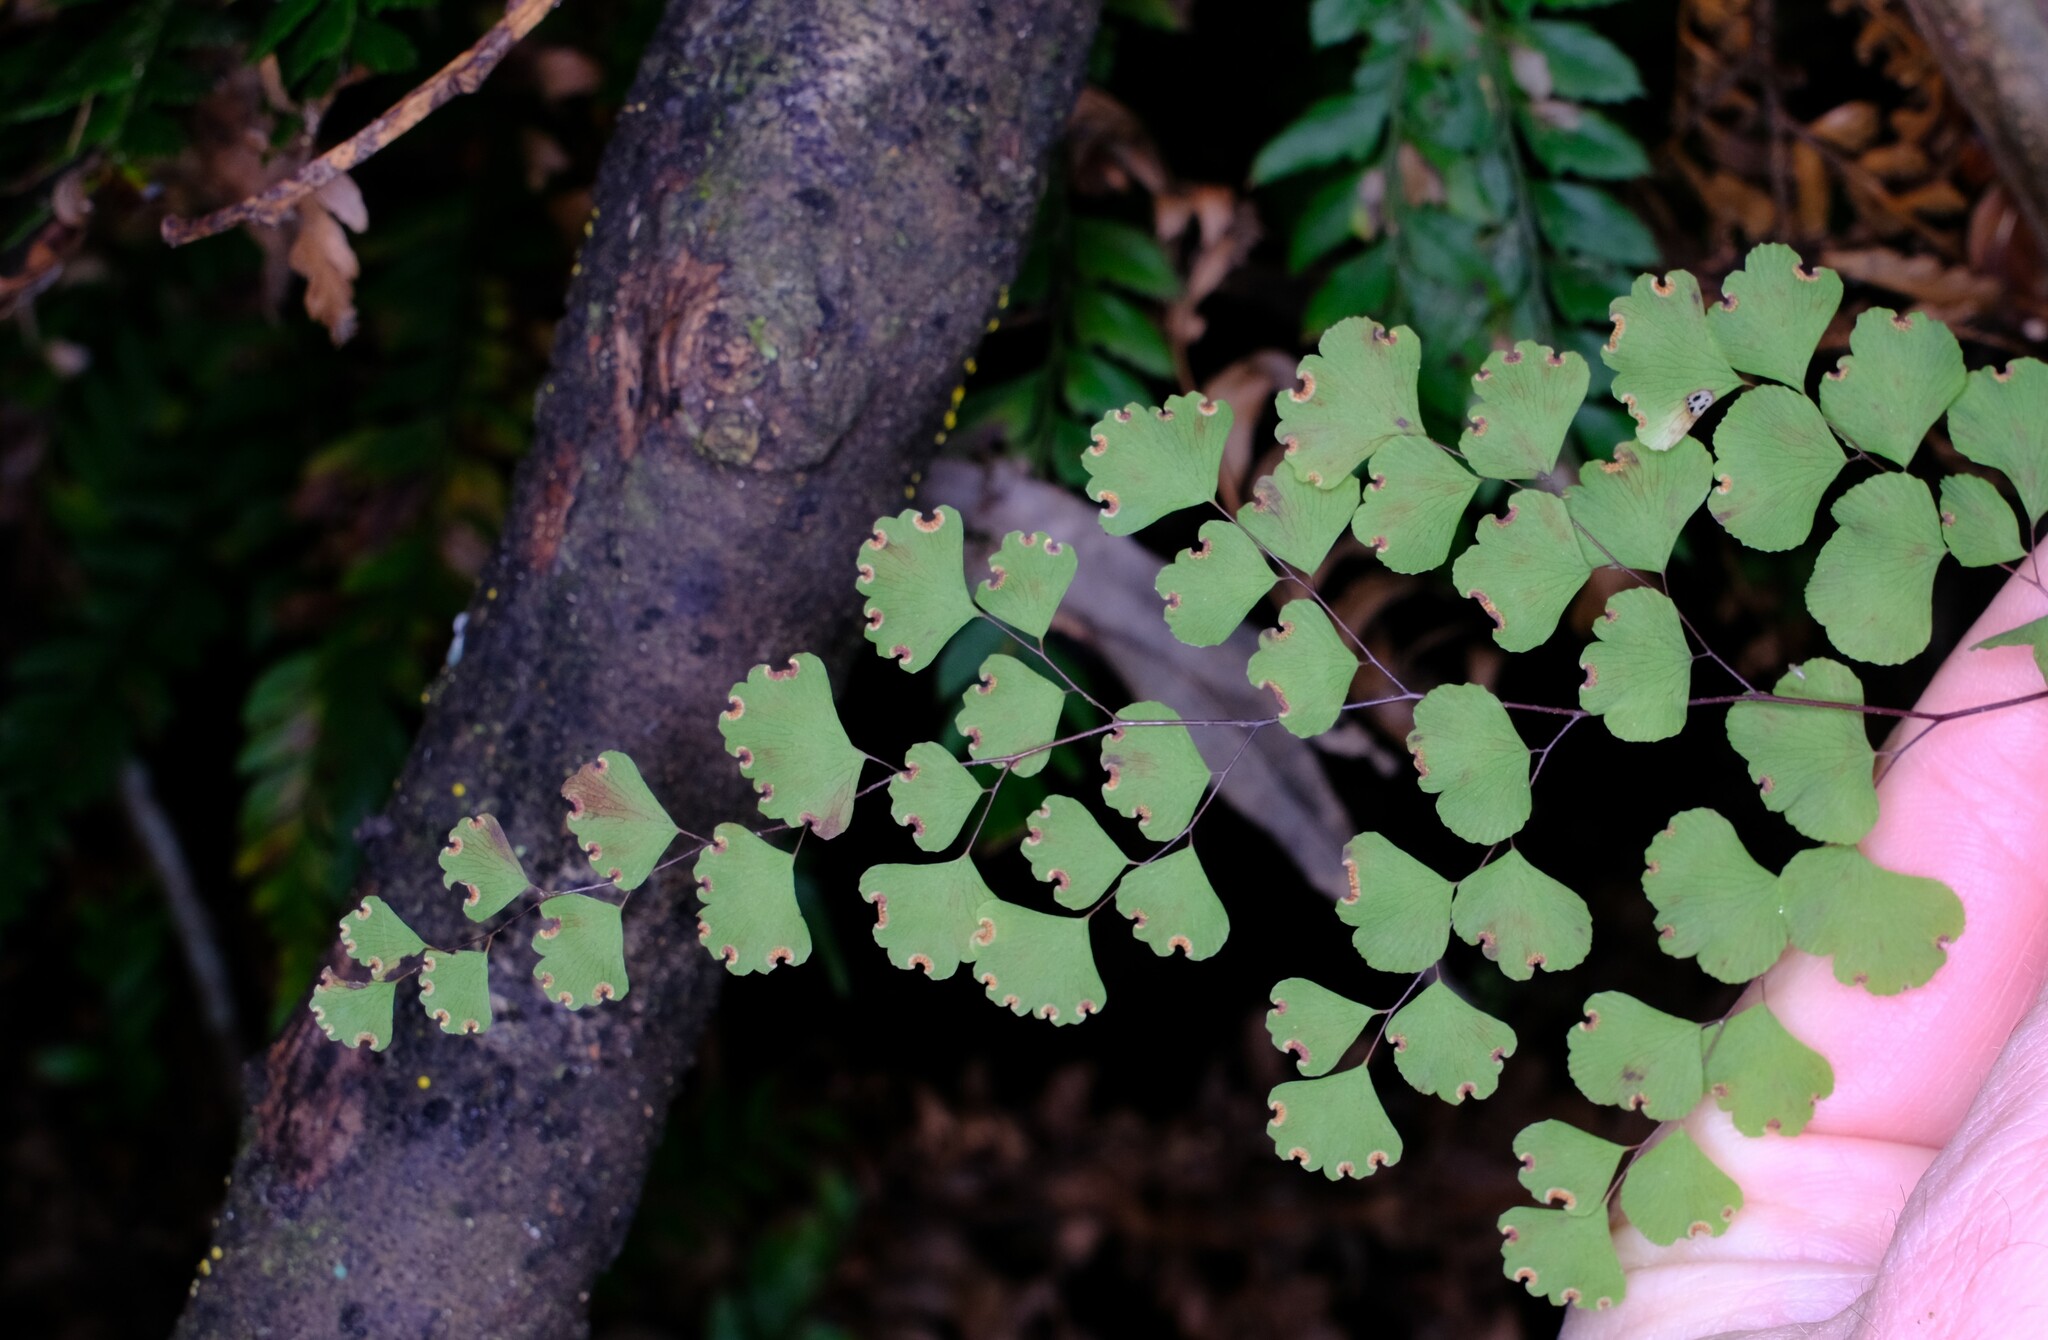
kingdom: Plantae
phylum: Tracheophyta
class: Polypodiopsida
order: Polypodiales
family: Pteridaceae
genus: Adiantum
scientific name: Adiantum aethiopicum
